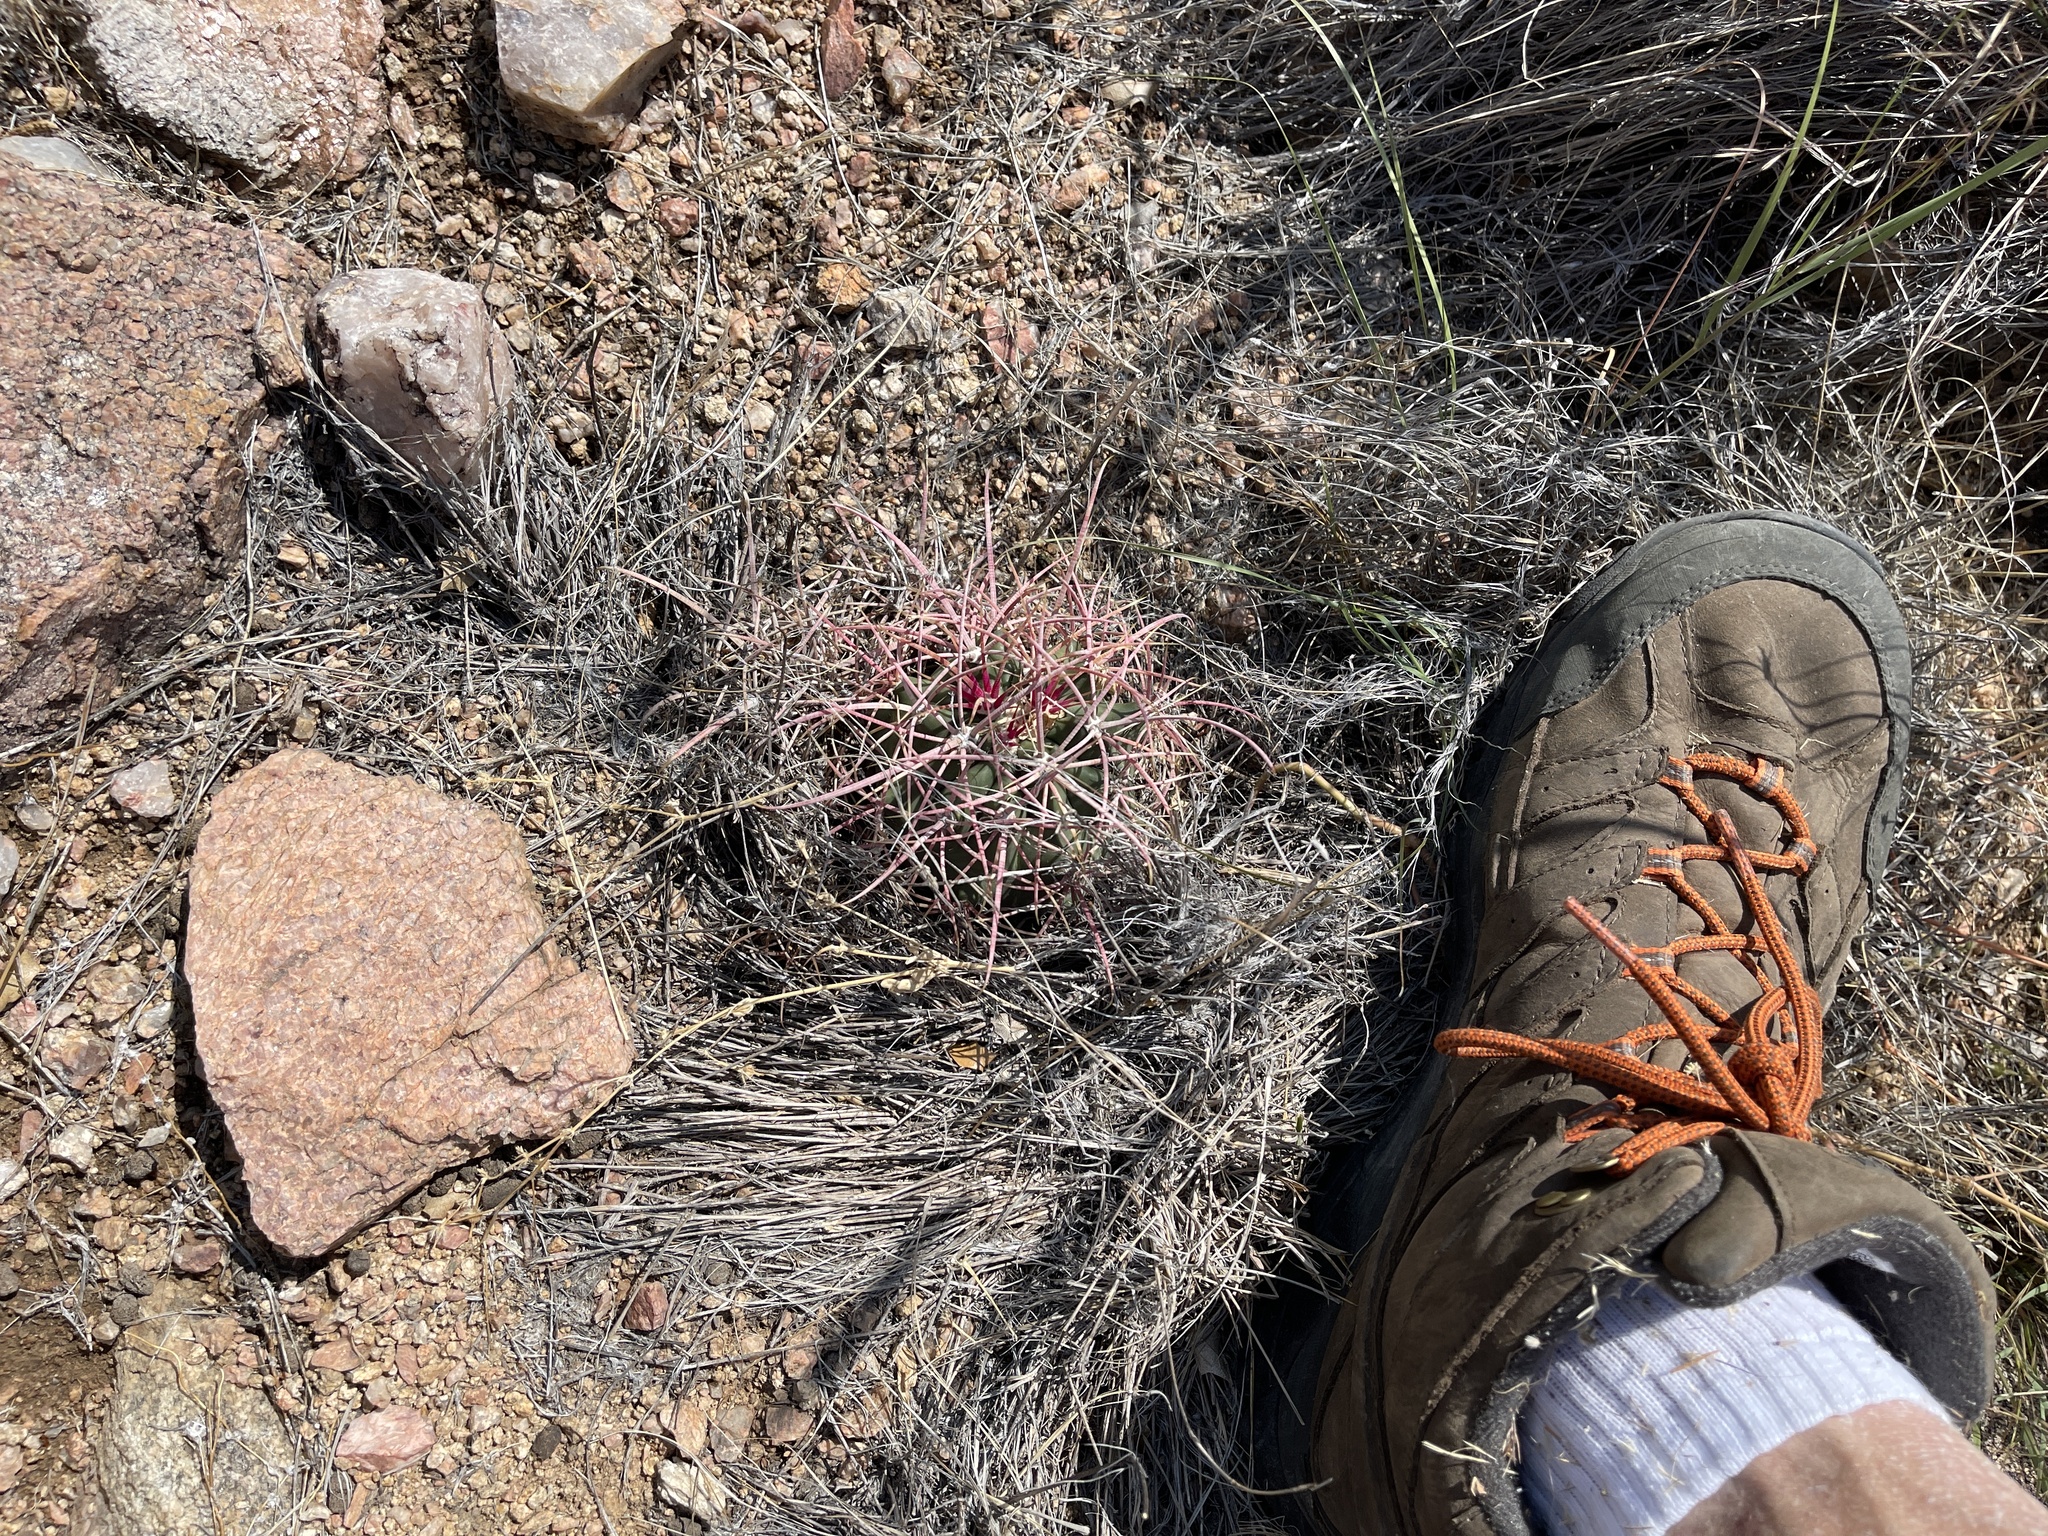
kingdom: Plantae
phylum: Tracheophyta
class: Magnoliopsida
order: Caryophyllales
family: Cactaceae
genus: Ferocactus
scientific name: Ferocactus cylindraceus
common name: California barrel cactus
